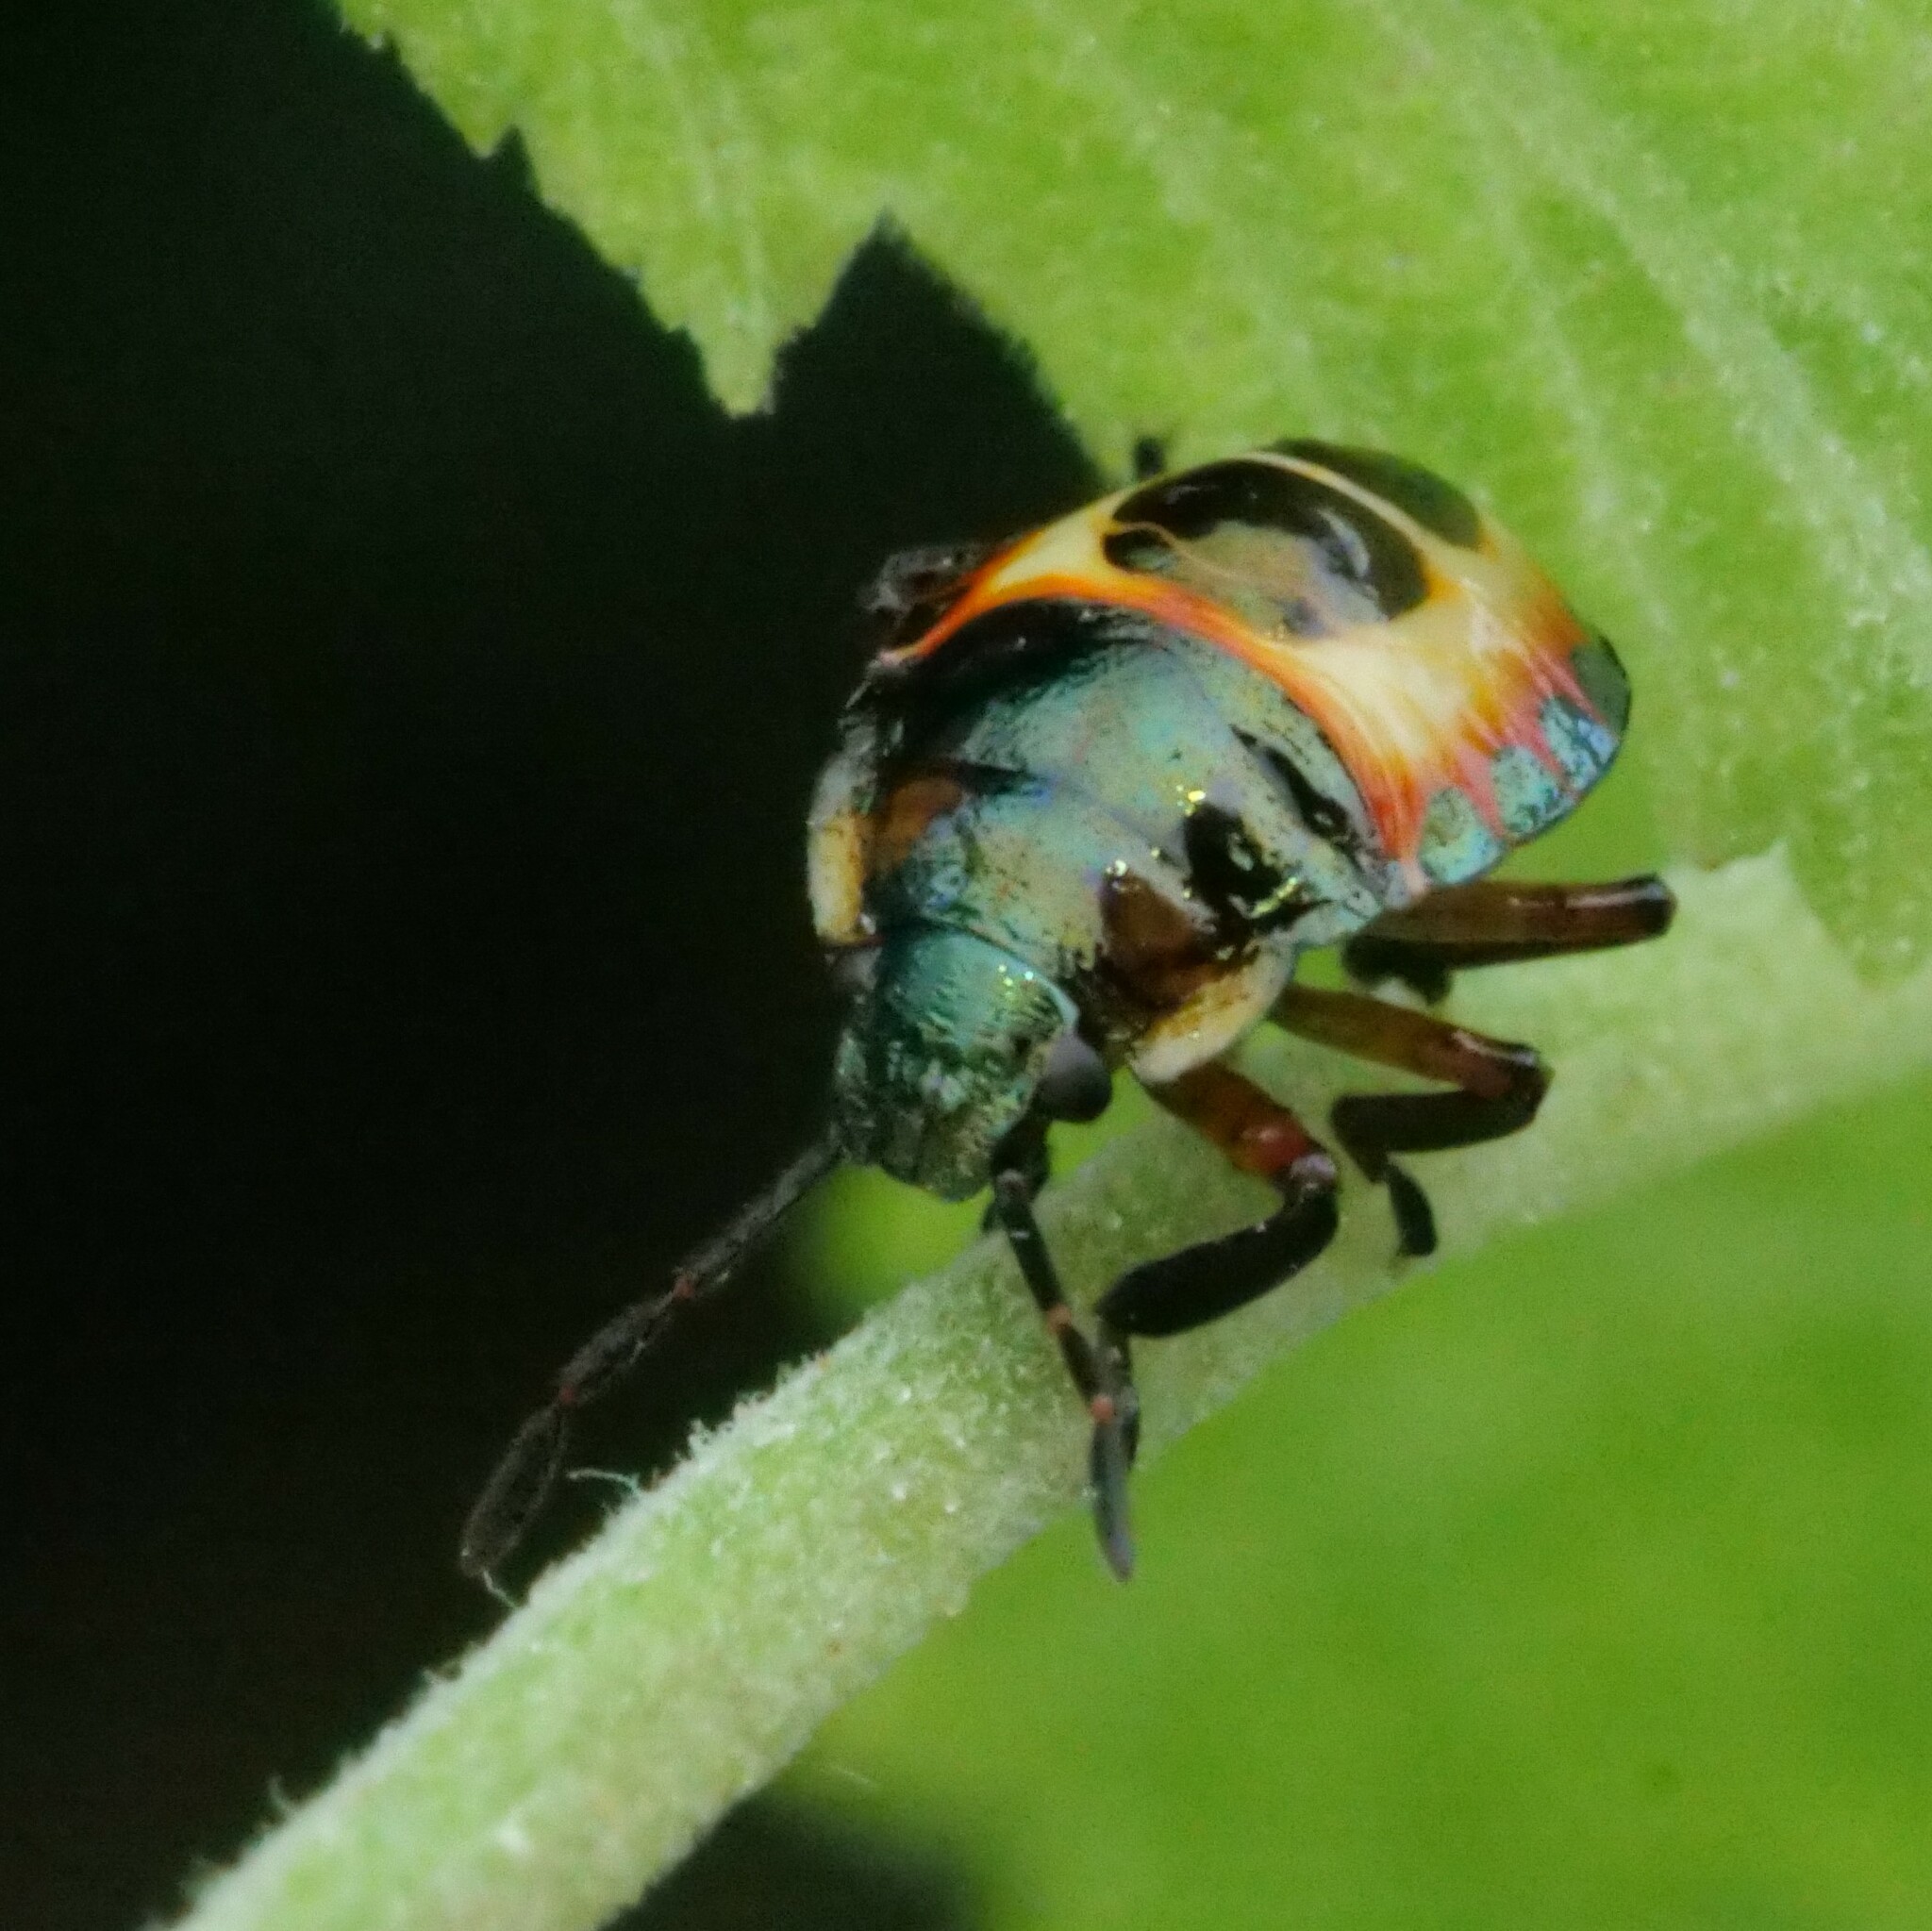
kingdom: Animalia
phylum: Arthropoda
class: Insecta
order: Hemiptera
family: Pentatomidae
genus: Troilus
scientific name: Troilus luridus
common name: Bronze shieldbug
